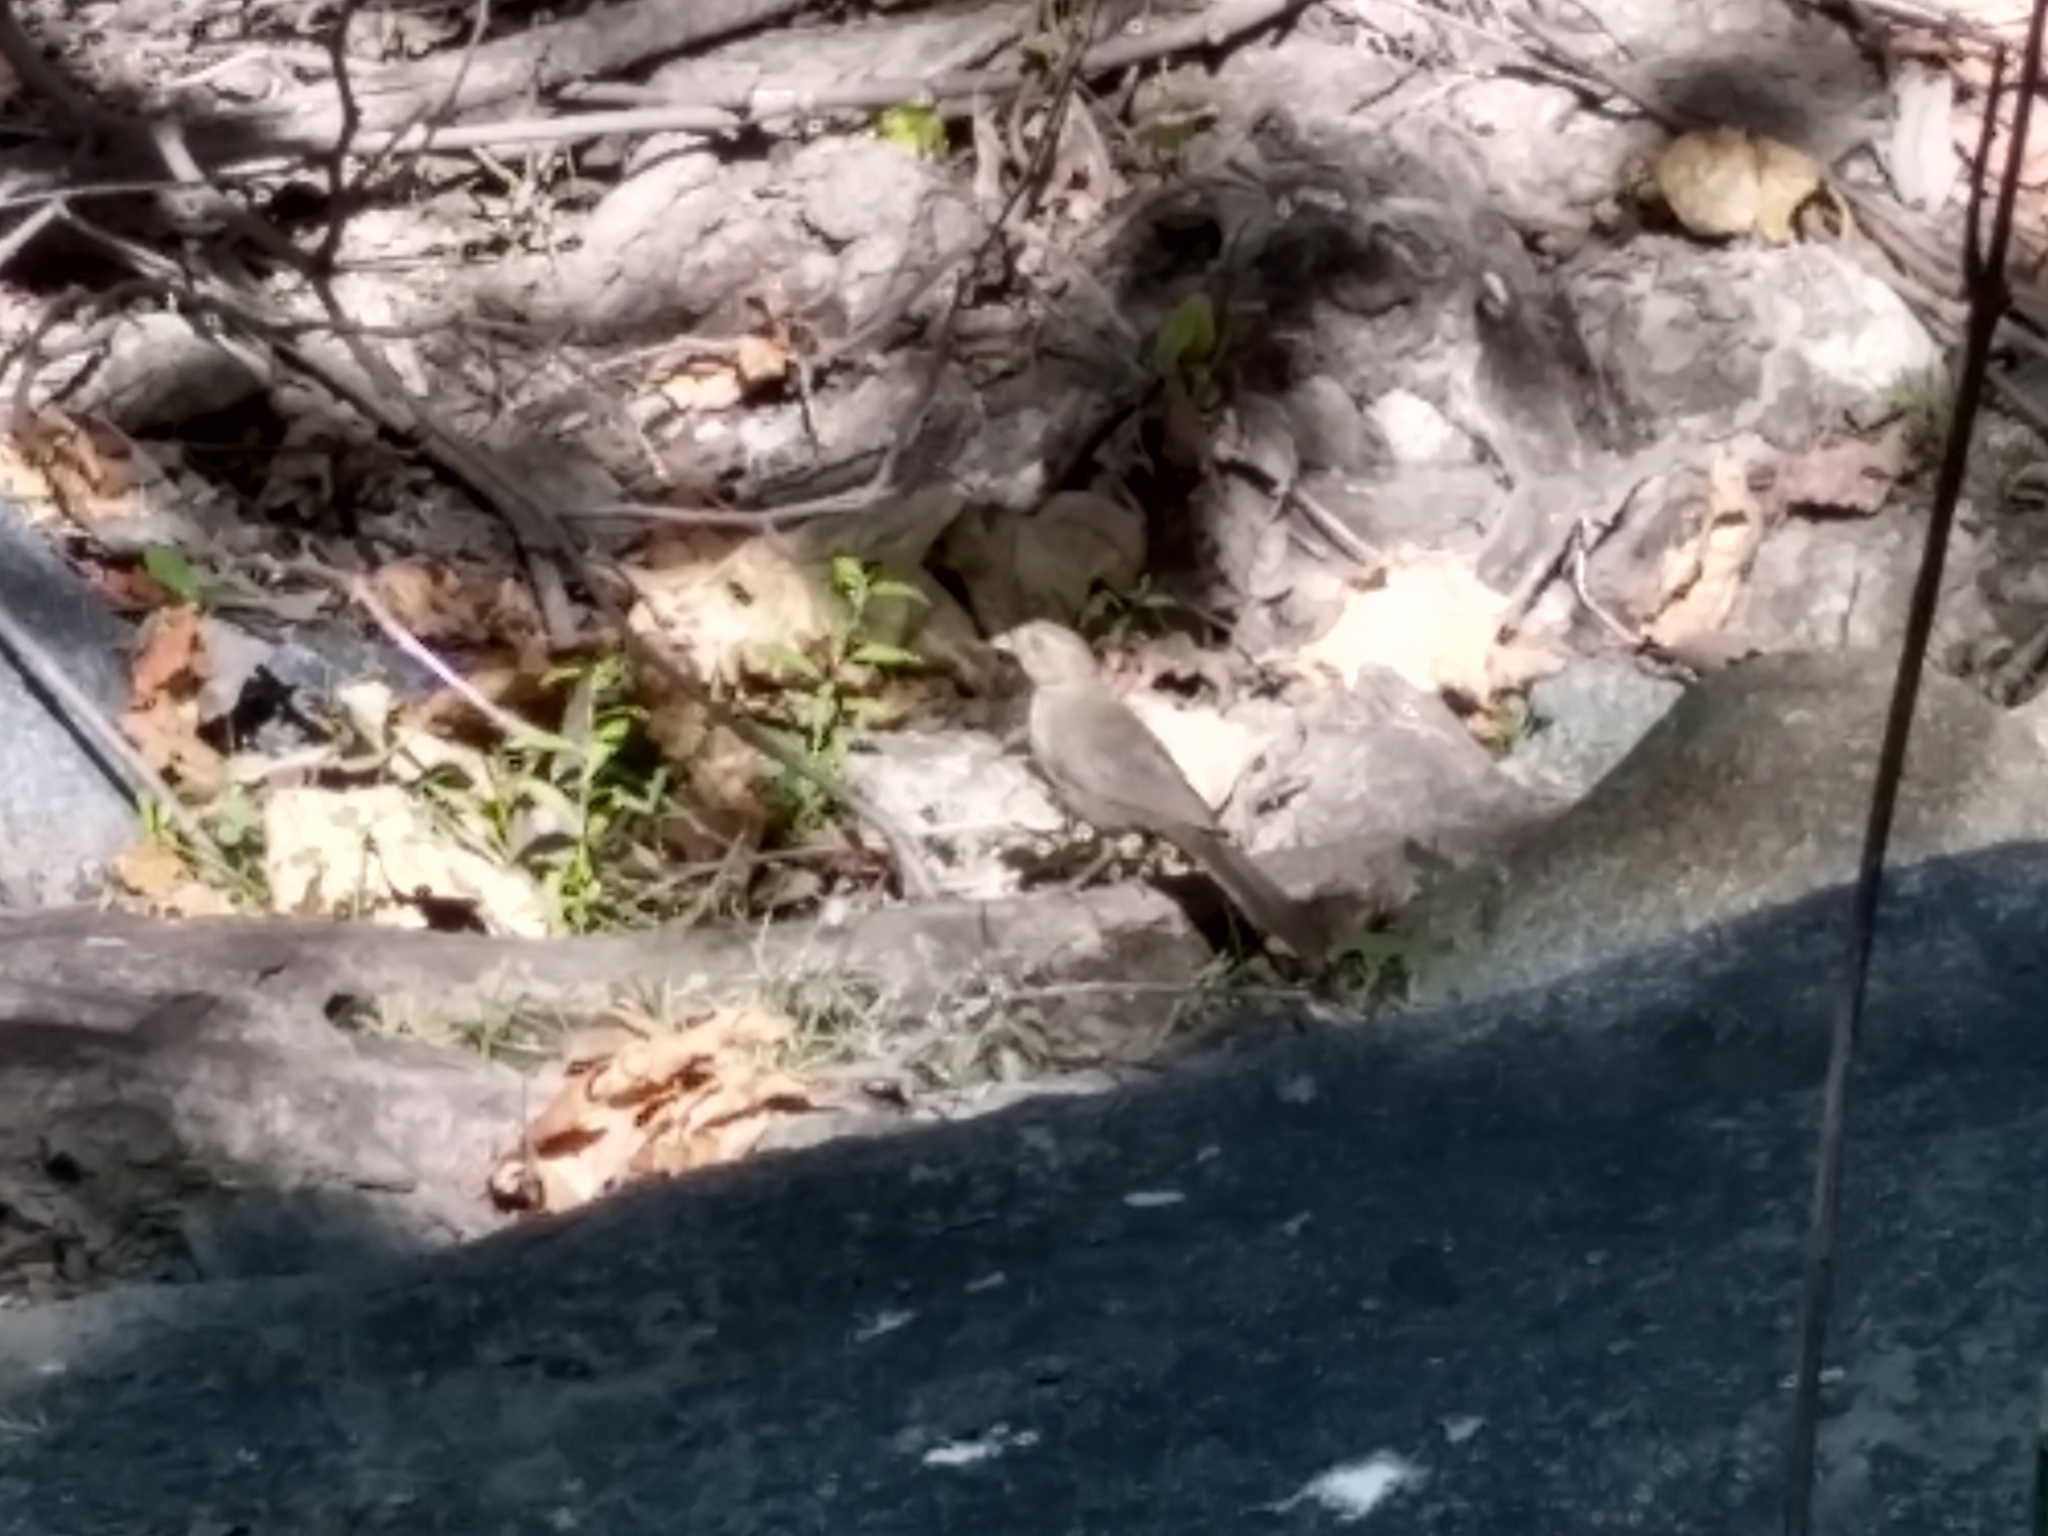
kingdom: Animalia
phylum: Chordata
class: Aves
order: Passeriformes
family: Passerellidae
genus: Melozone
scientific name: Melozone crissalis
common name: California towhee
